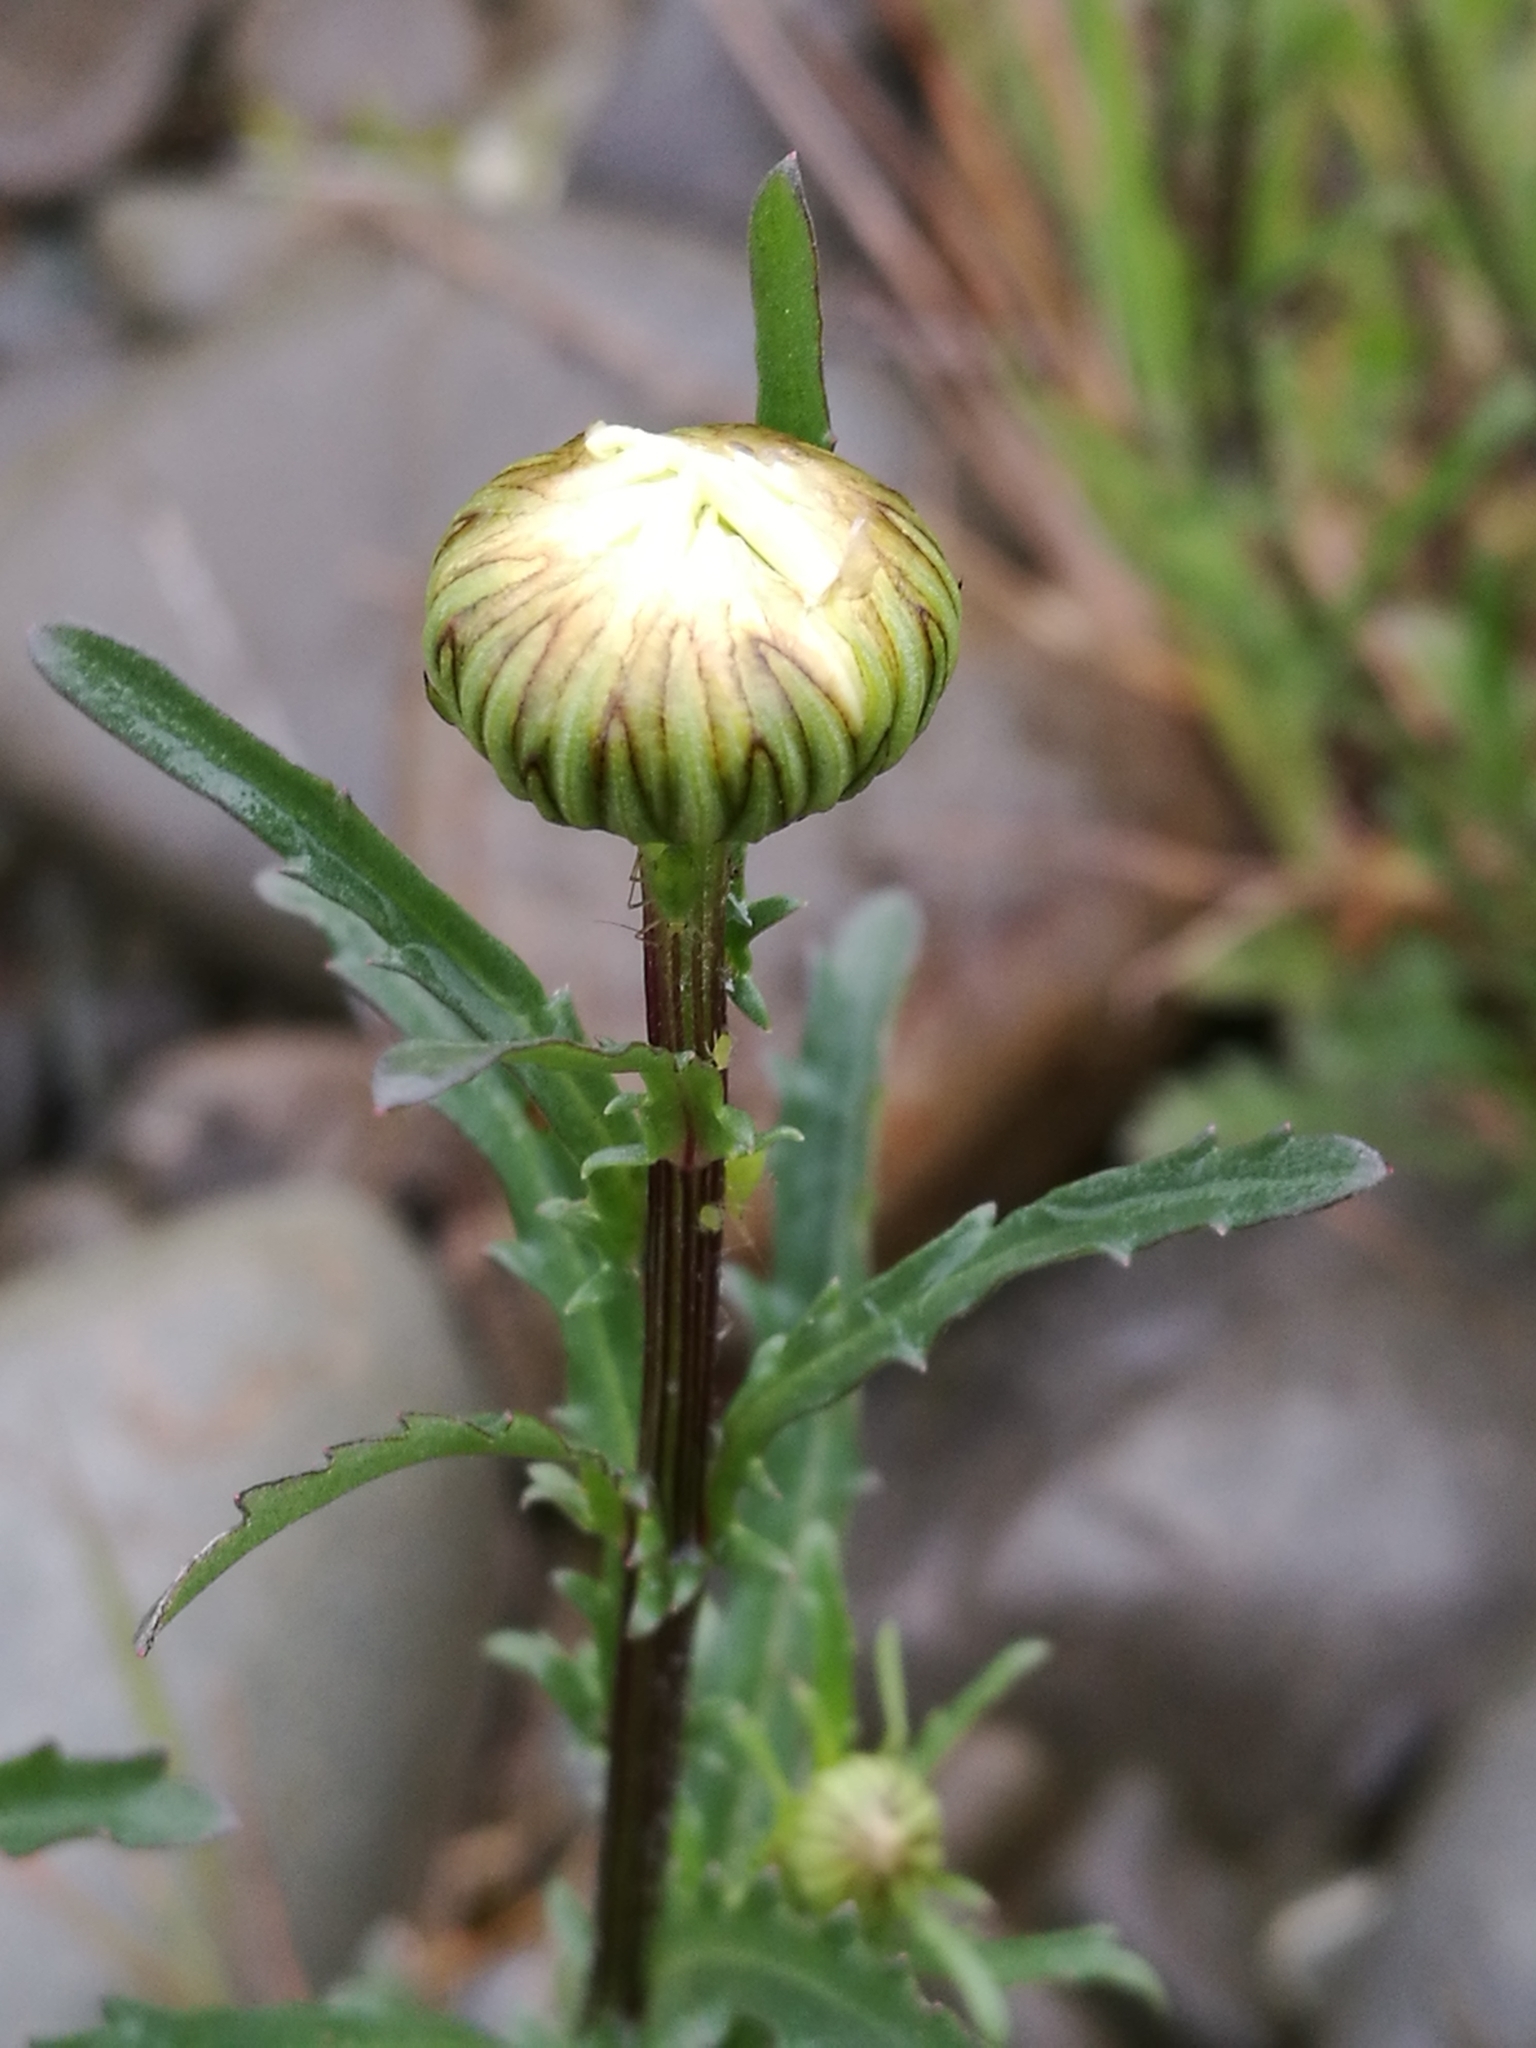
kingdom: Plantae
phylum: Tracheophyta
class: Magnoliopsida
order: Asterales
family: Asteraceae
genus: Leucanthemum
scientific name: Leucanthemum vulgare
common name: Oxeye daisy
